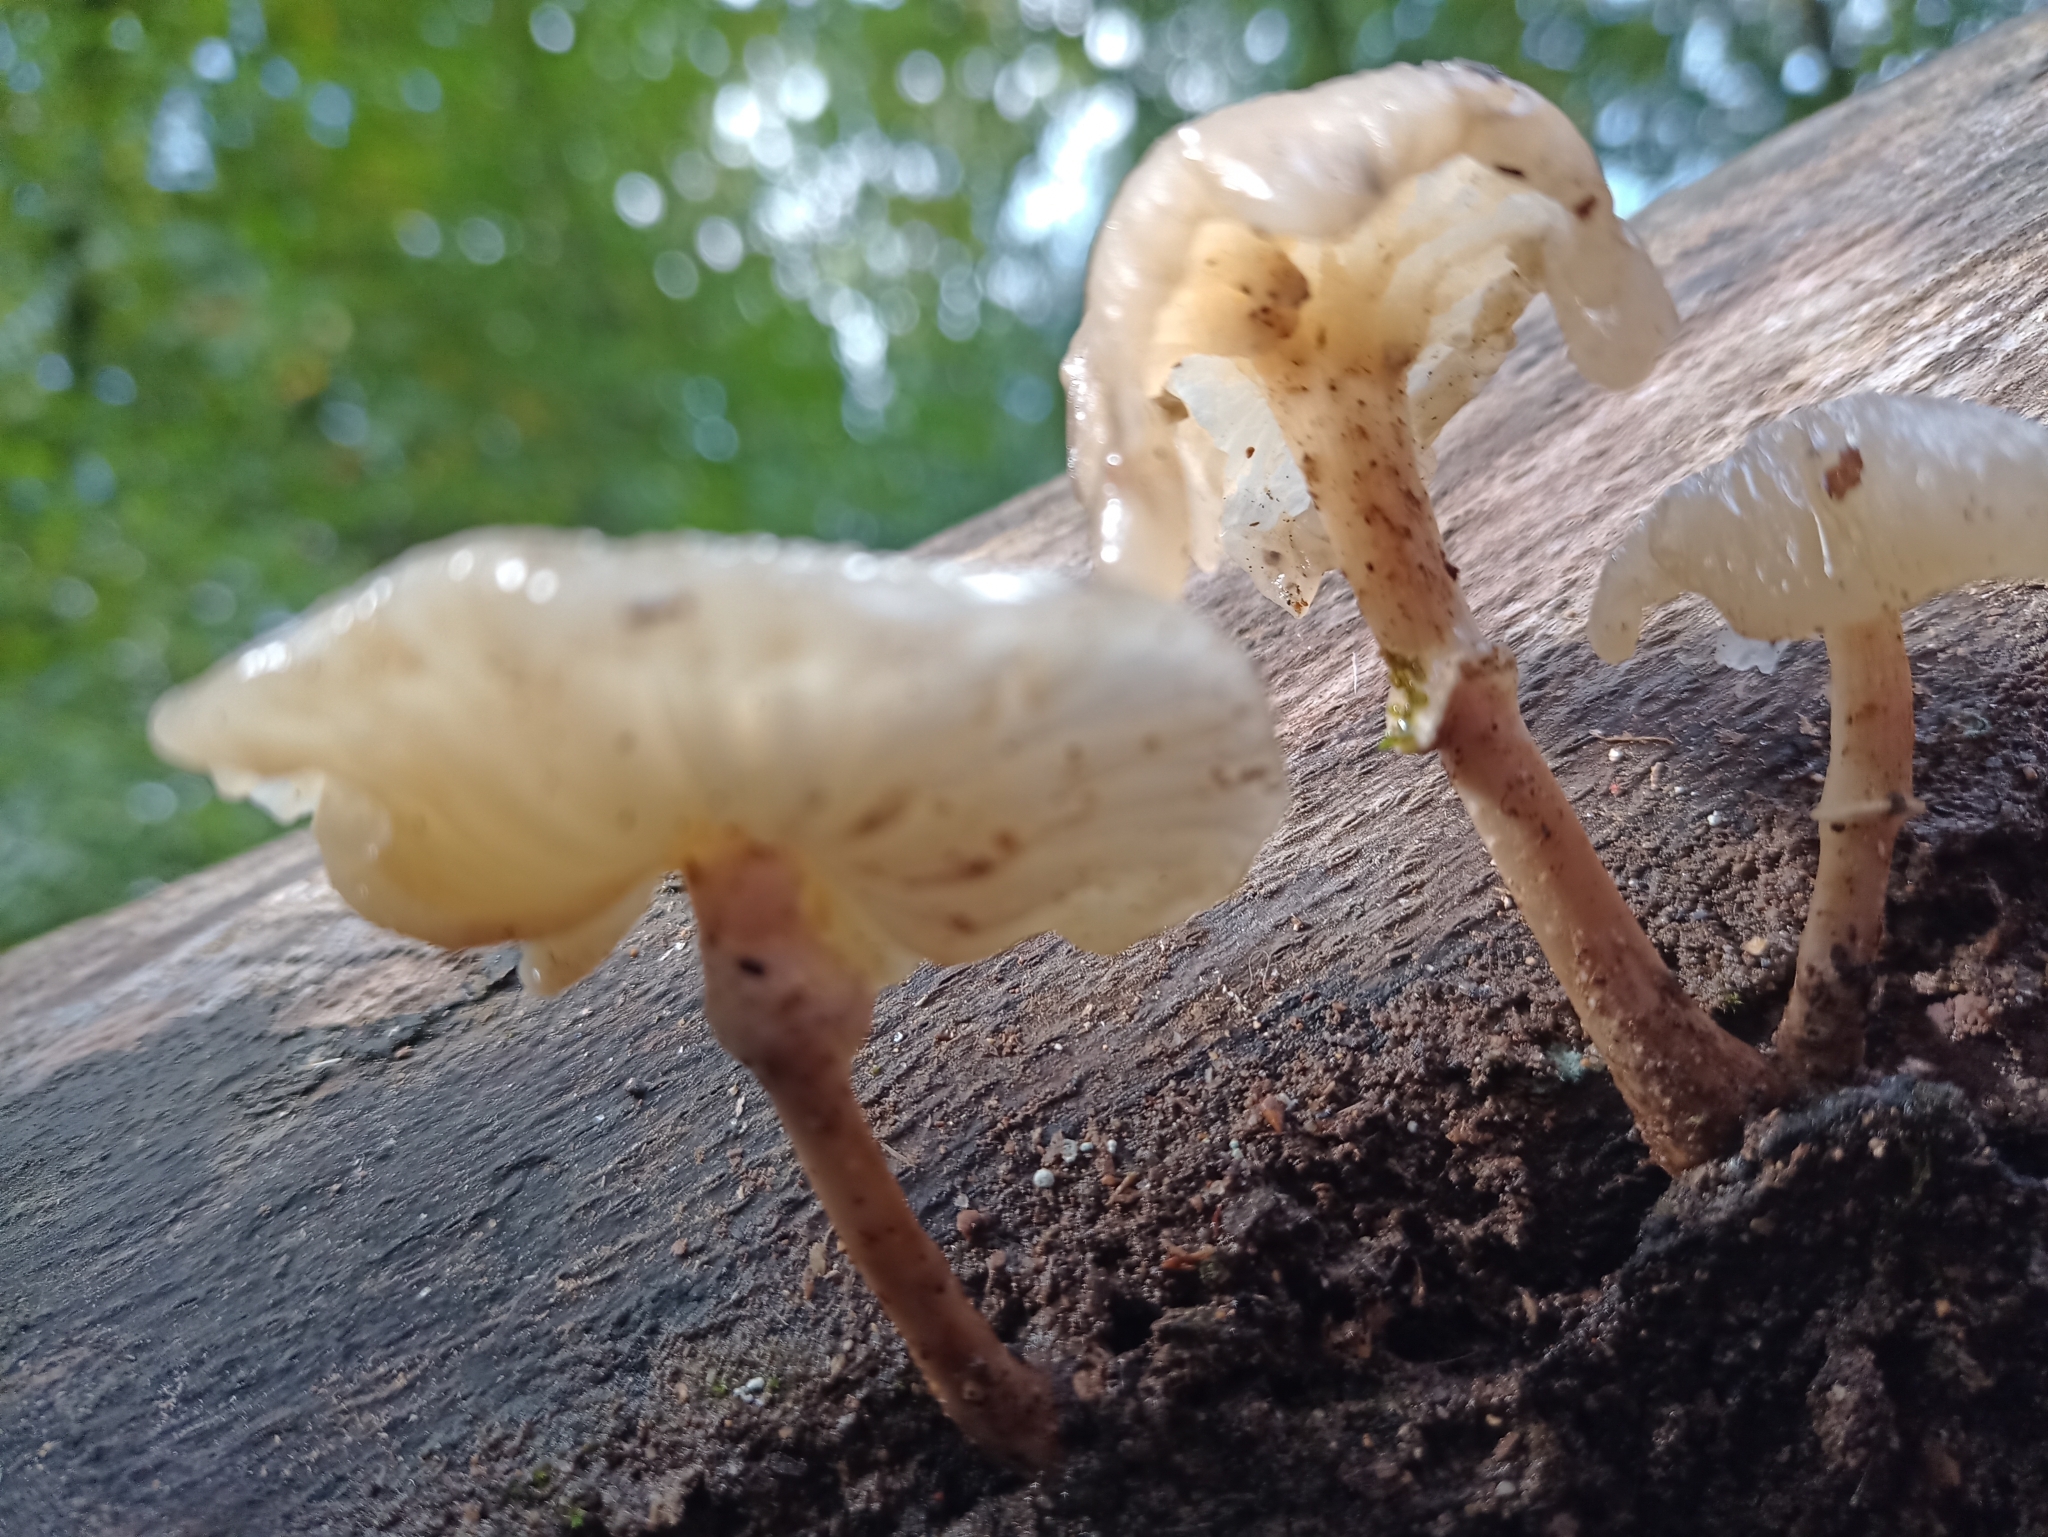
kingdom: Fungi
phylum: Basidiomycota
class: Agaricomycetes
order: Agaricales
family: Physalacriaceae
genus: Mucidula
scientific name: Mucidula mucida
